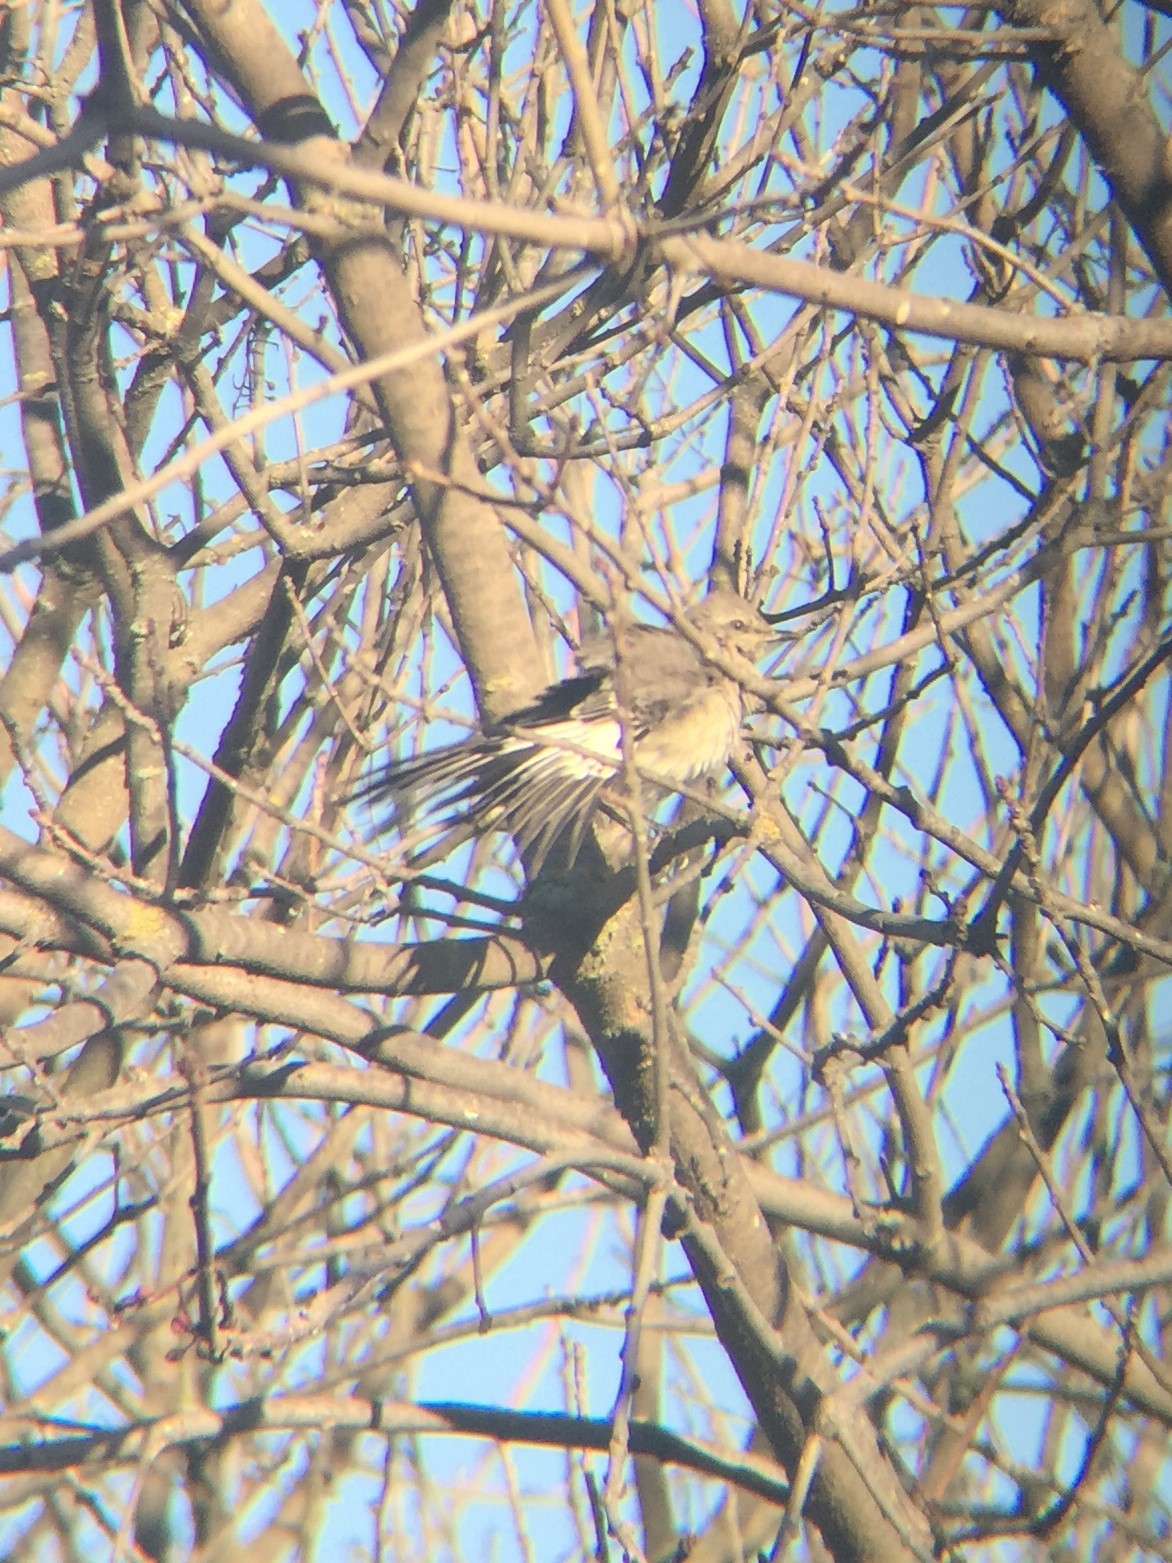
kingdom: Animalia
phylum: Chordata
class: Aves
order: Passeriformes
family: Mimidae
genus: Mimus
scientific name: Mimus polyglottos
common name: Northern mockingbird
